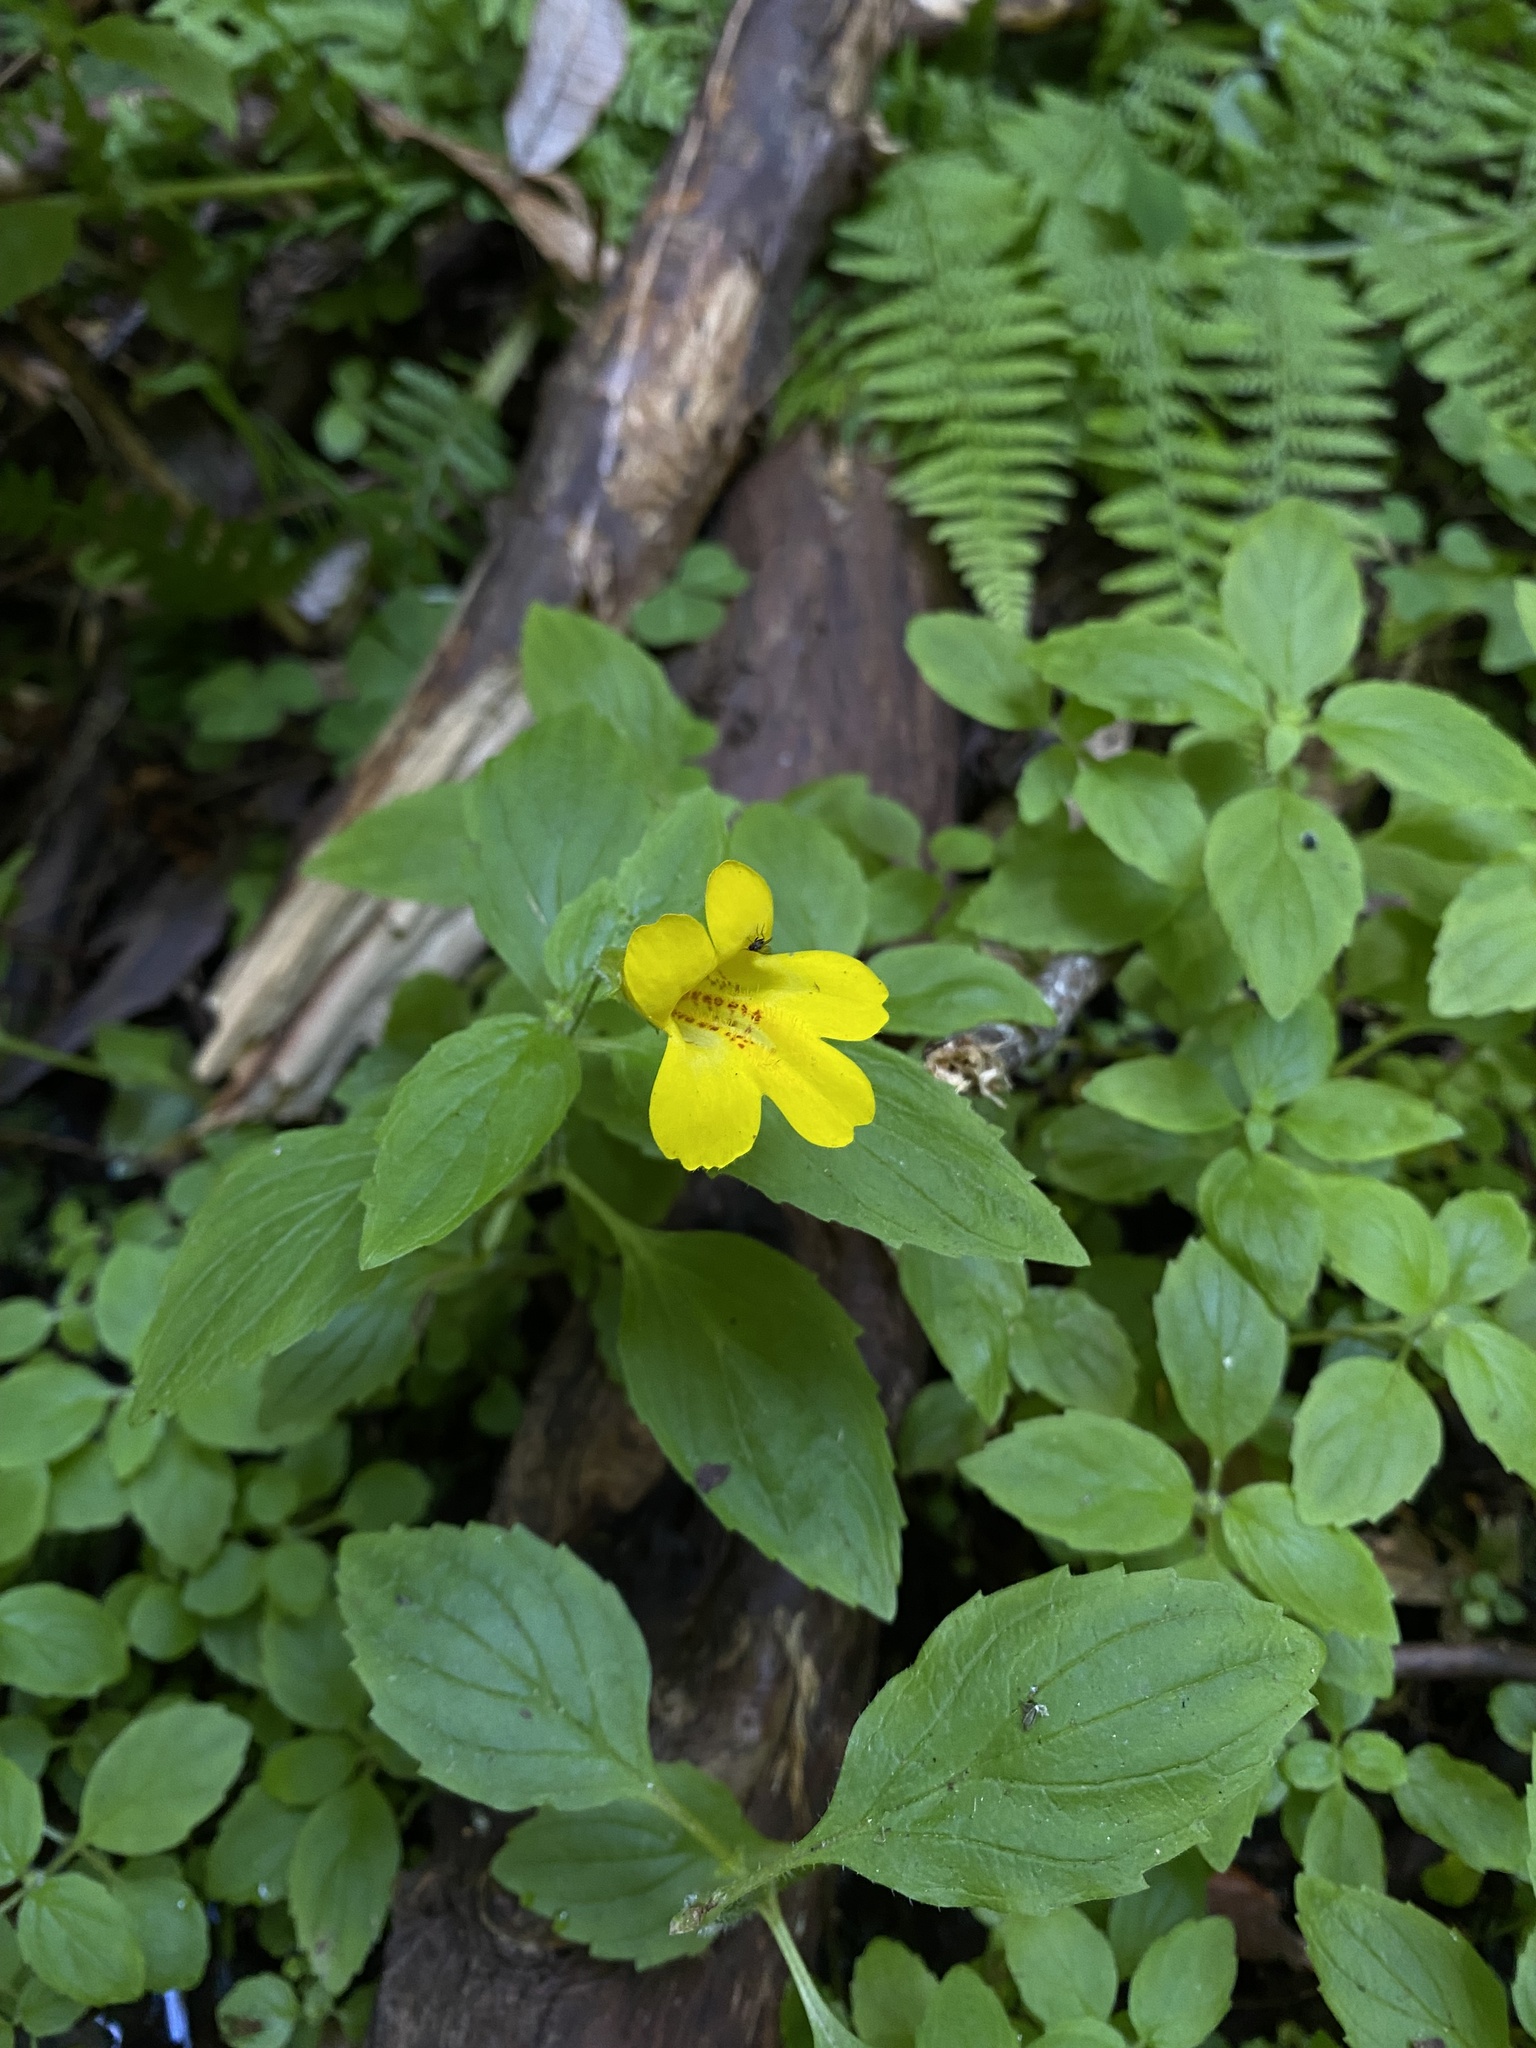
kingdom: Plantae
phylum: Tracheophyta
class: Magnoliopsida
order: Lamiales
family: Phrymaceae
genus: Erythranthe
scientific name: Erythranthe dentata
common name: Coastal monkeyflower
